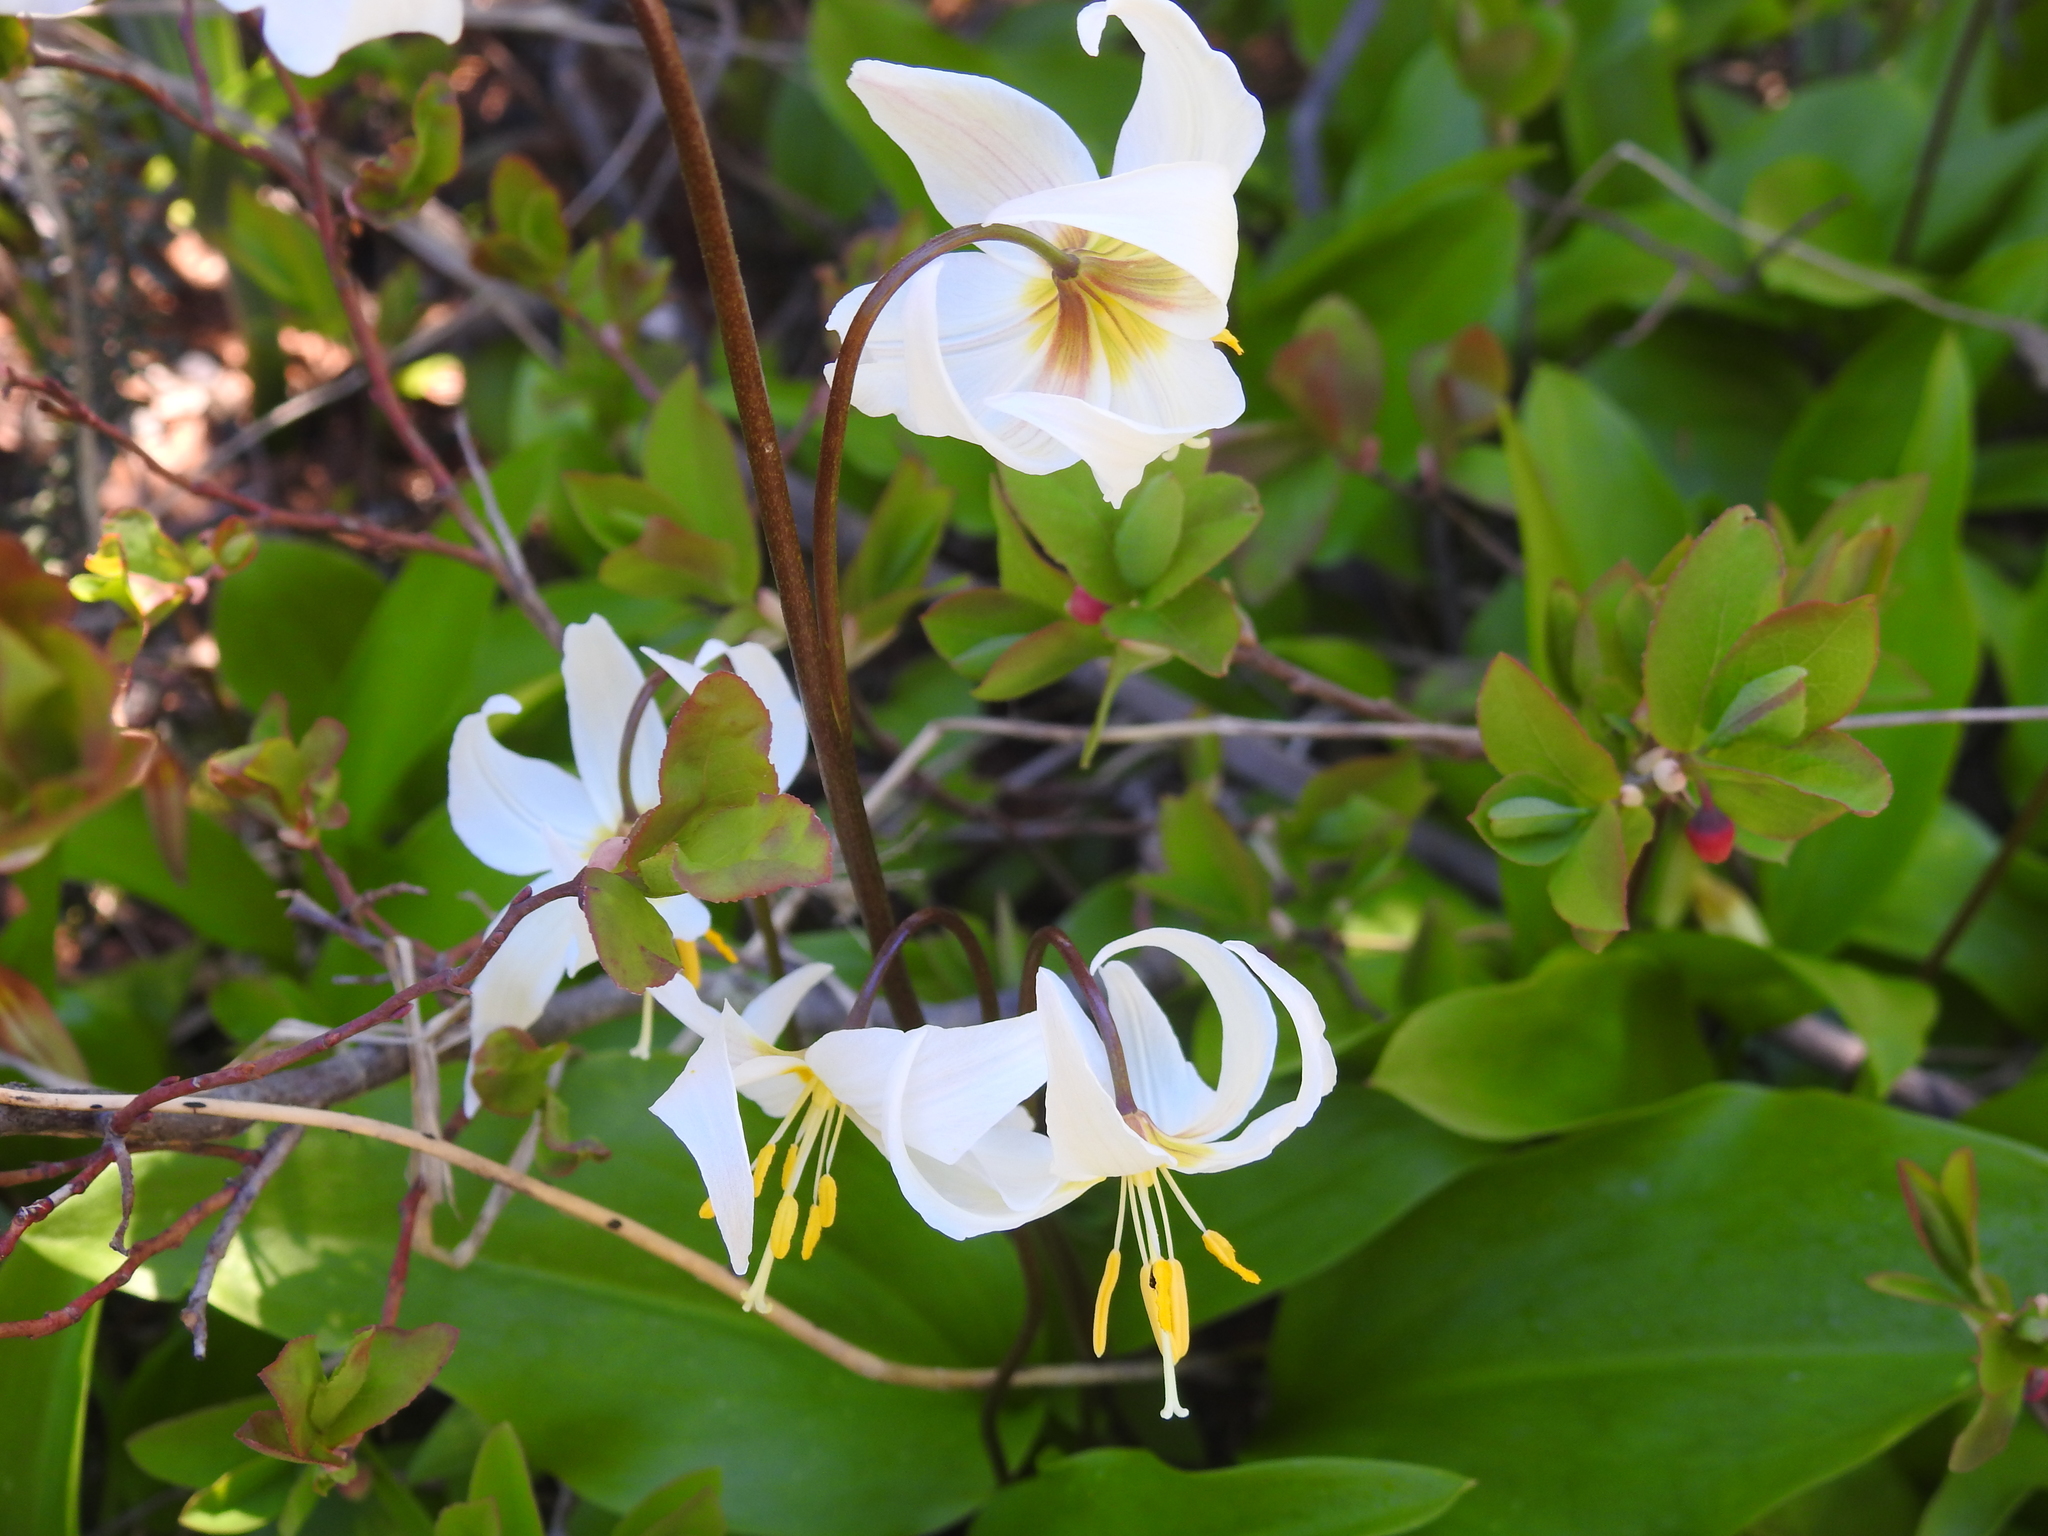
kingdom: Plantae
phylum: Tracheophyta
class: Liliopsida
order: Liliales
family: Liliaceae
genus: Erythronium
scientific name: Erythronium montanum
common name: Avalanche lily
